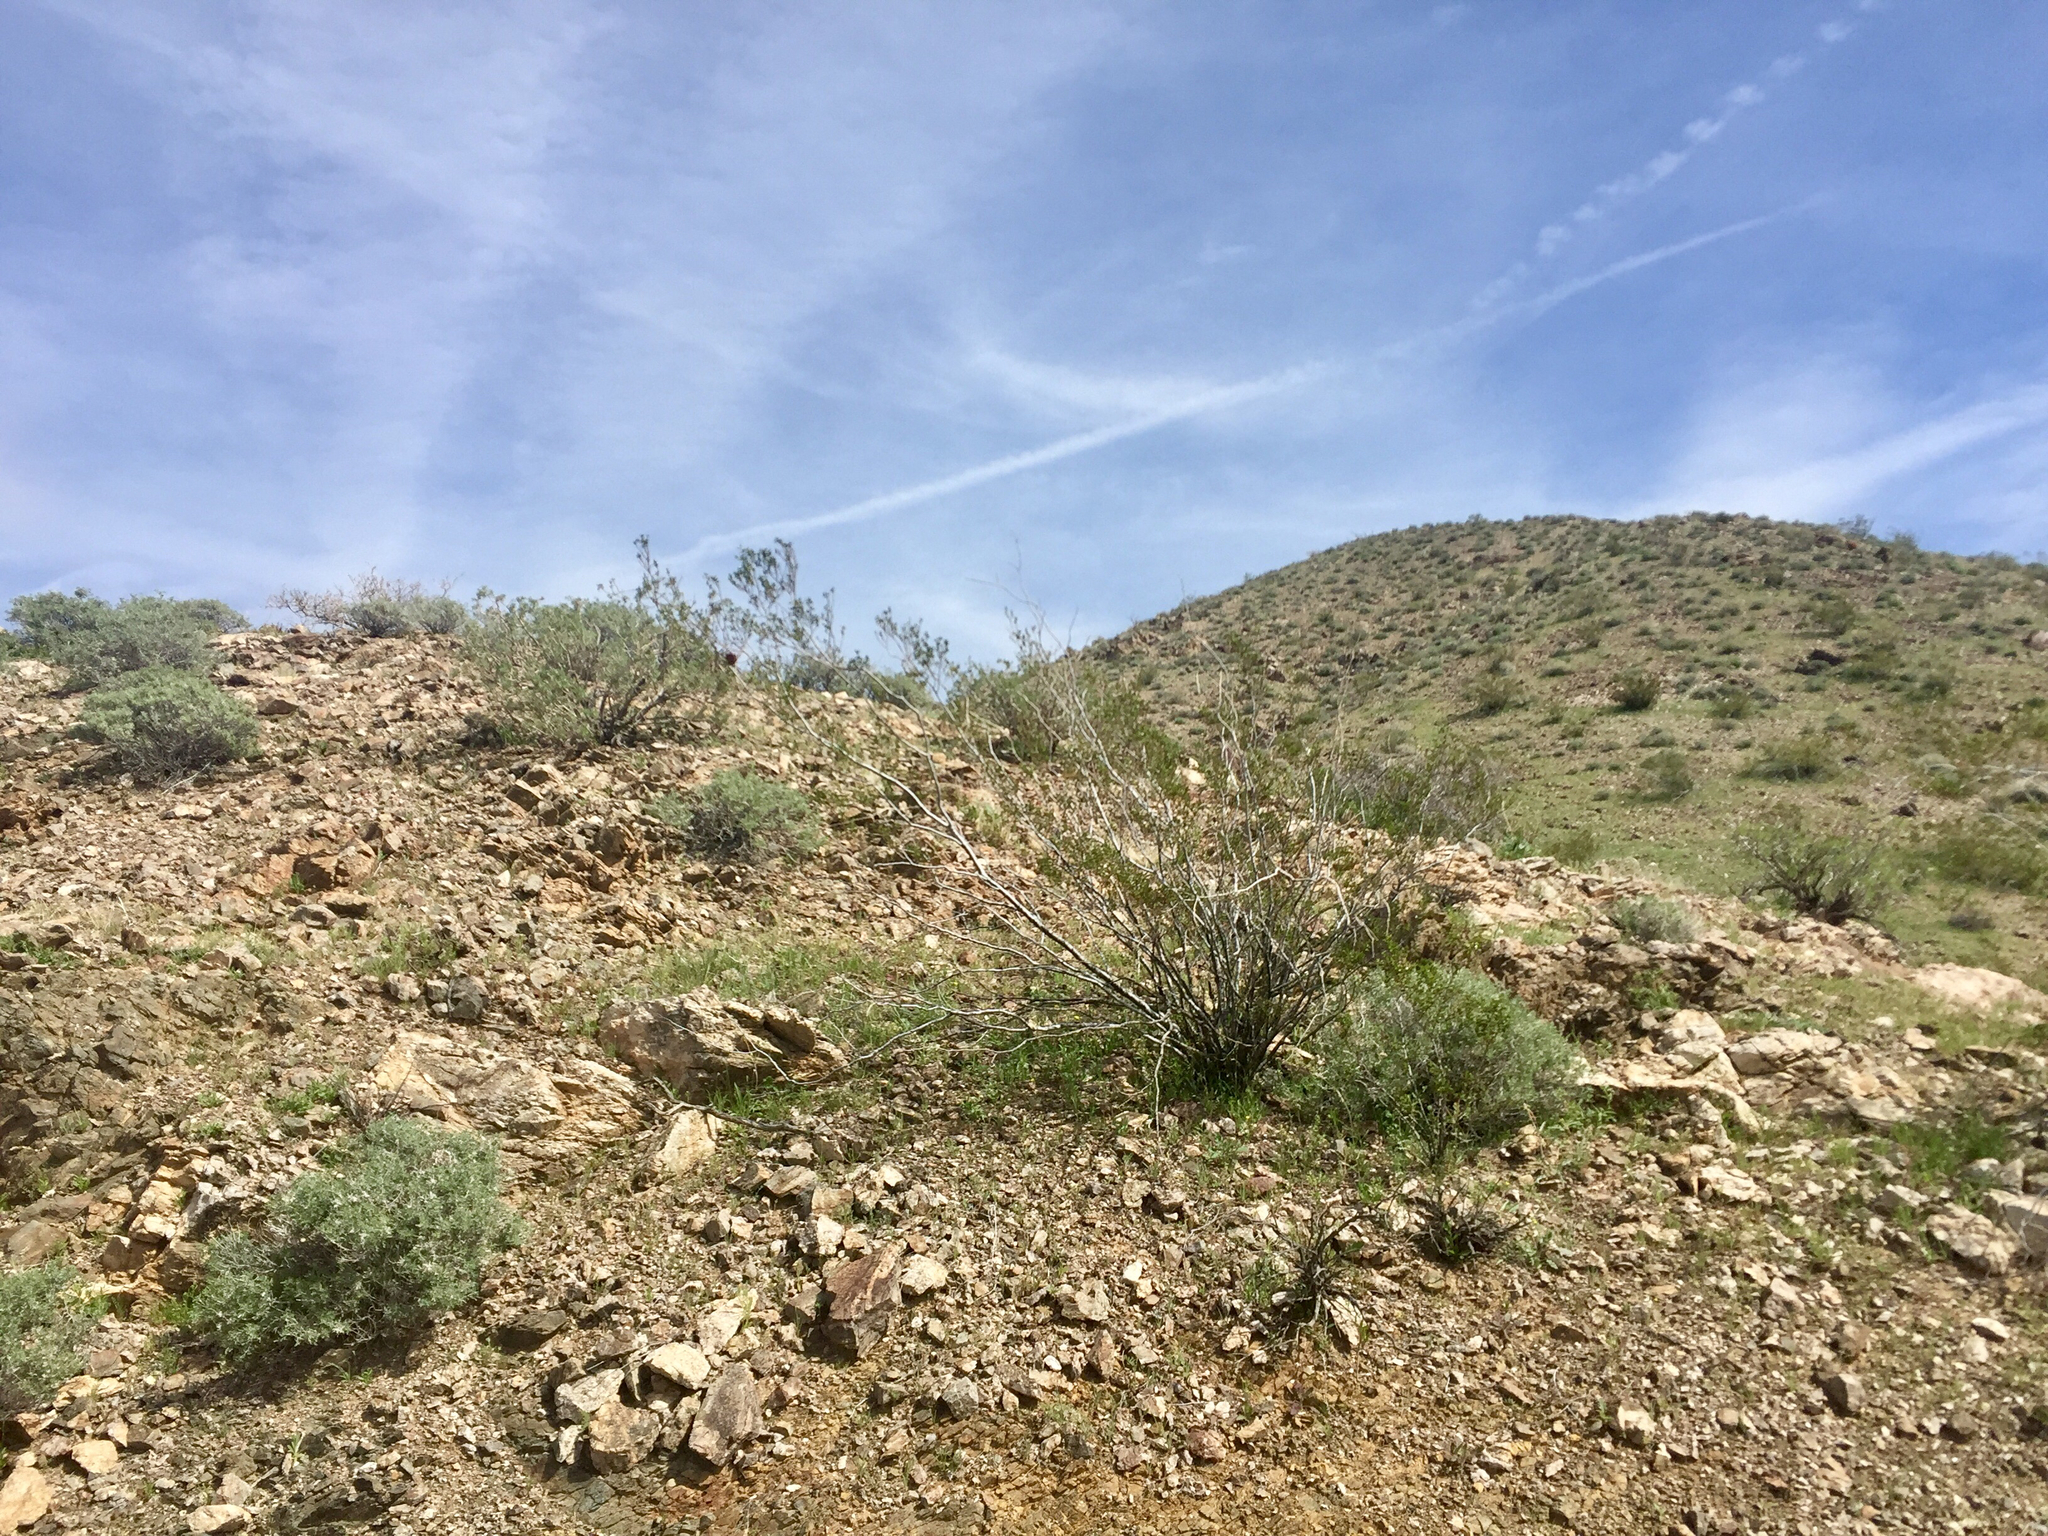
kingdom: Plantae
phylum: Tracheophyta
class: Magnoliopsida
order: Zygophyllales
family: Zygophyllaceae
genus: Larrea
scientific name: Larrea tridentata
